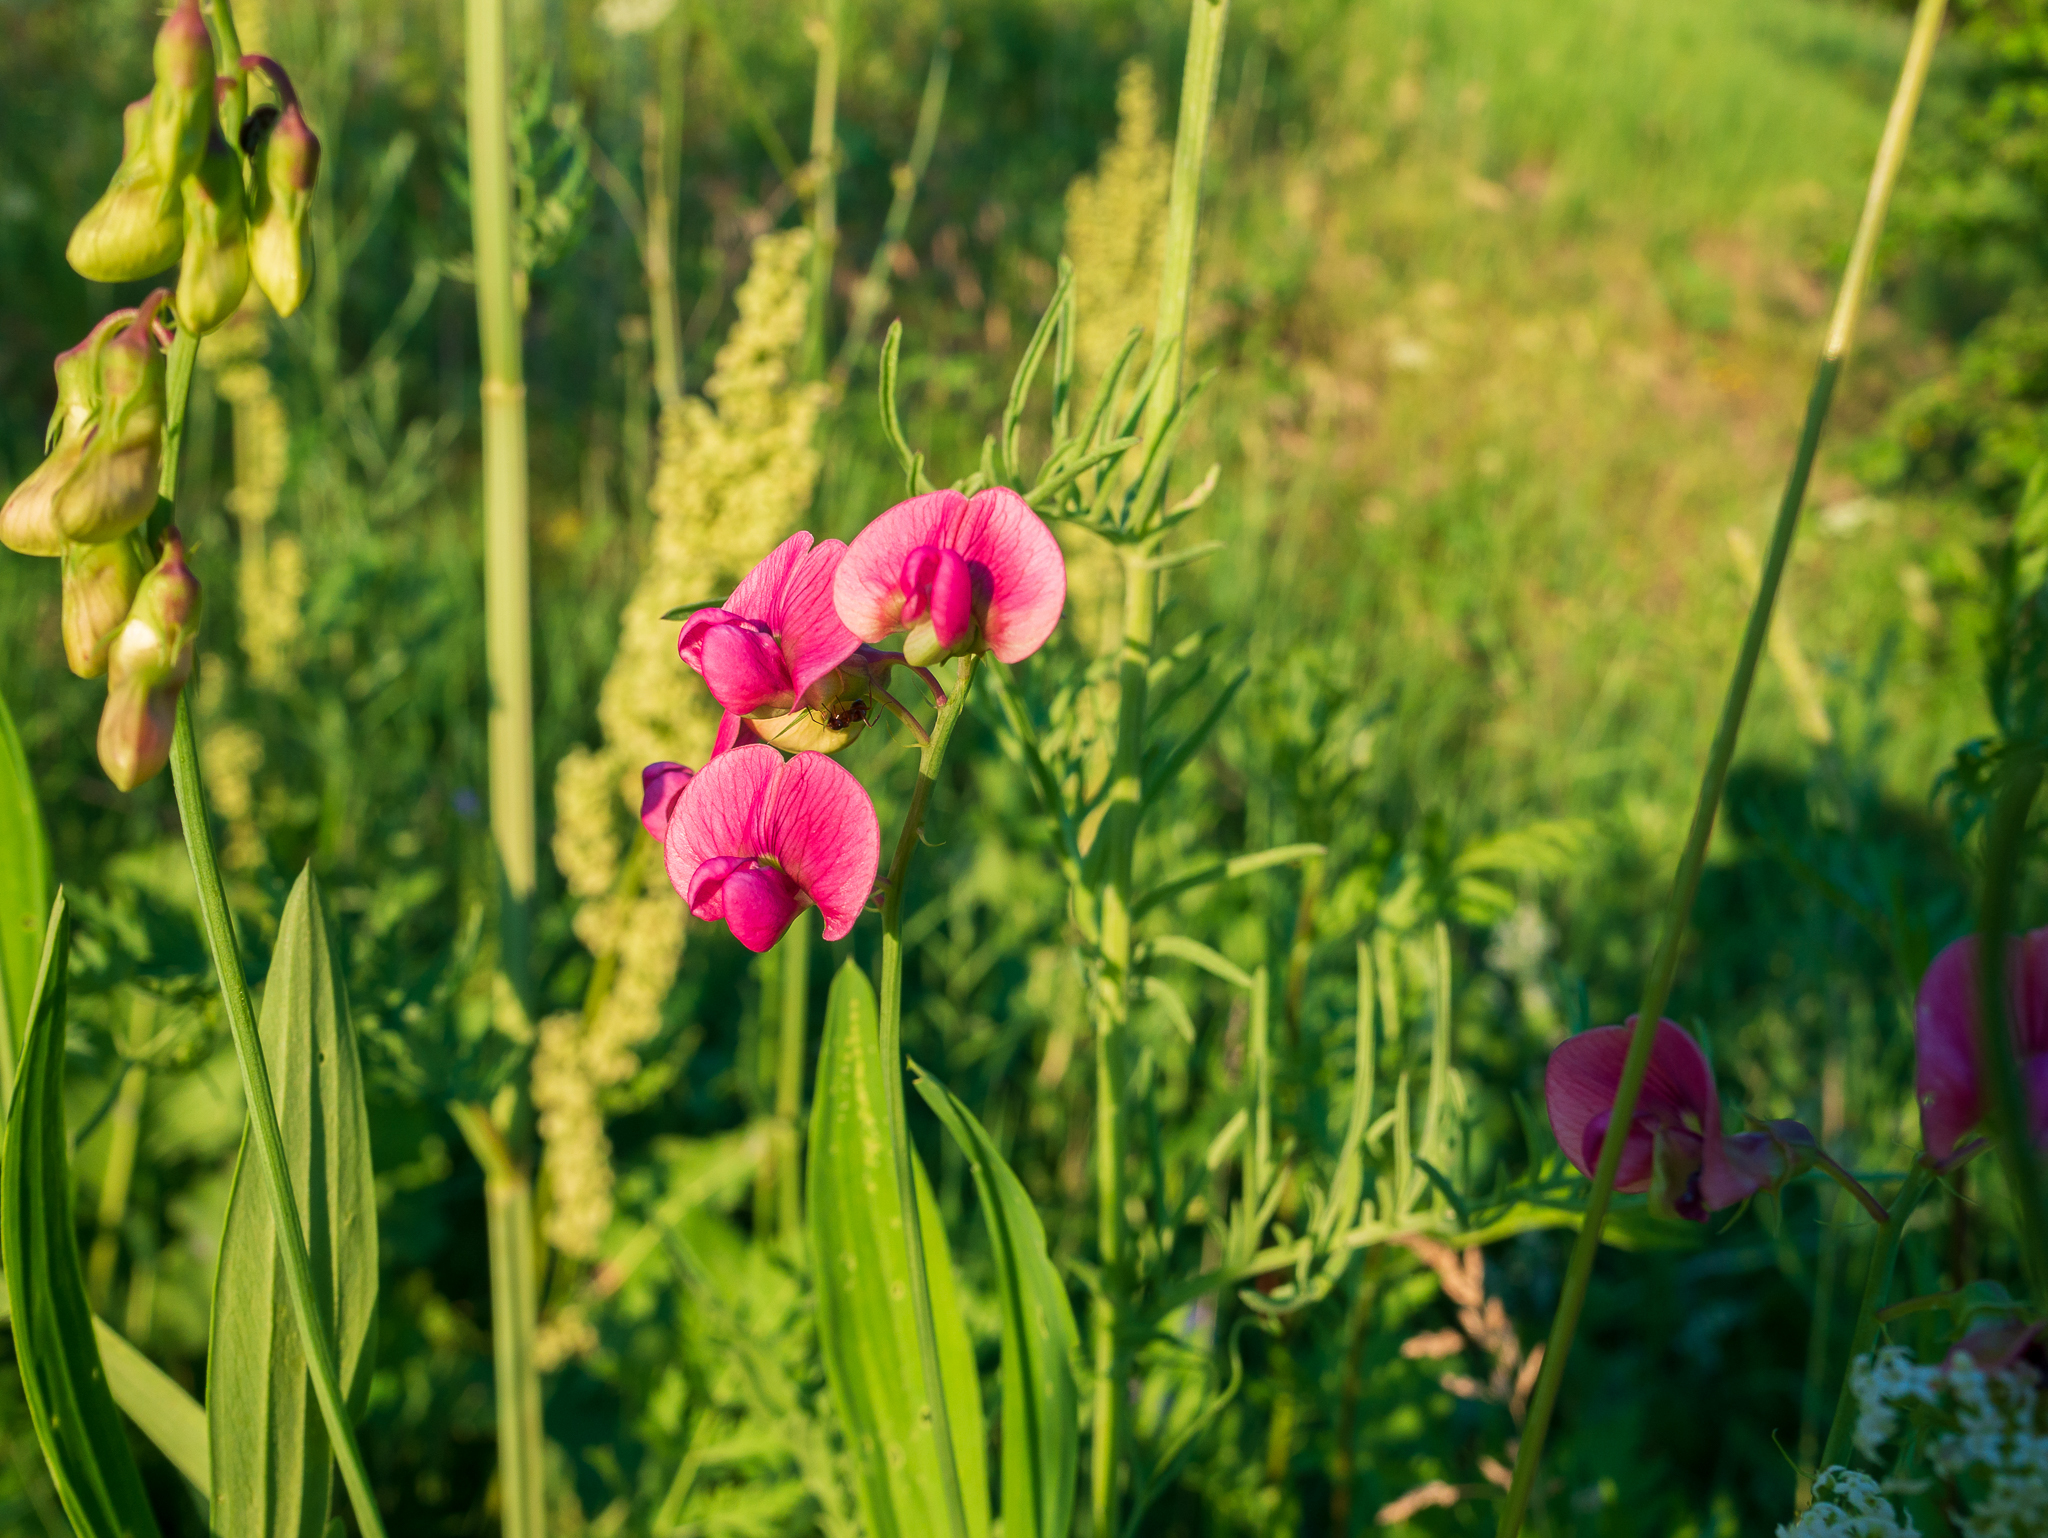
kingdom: Plantae
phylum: Tracheophyta
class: Magnoliopsida
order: Fabales
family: Fabaceae
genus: Lathyrus
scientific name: Lathyrus sylvestris
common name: Flat pea
